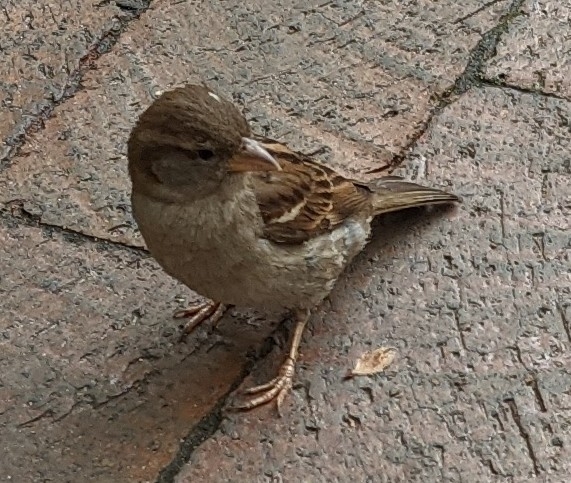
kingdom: Animalia
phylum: Chordata
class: Aves
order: Passeriformes
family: Passeridae
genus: Passer
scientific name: Passer domesticus
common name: House sparrow
